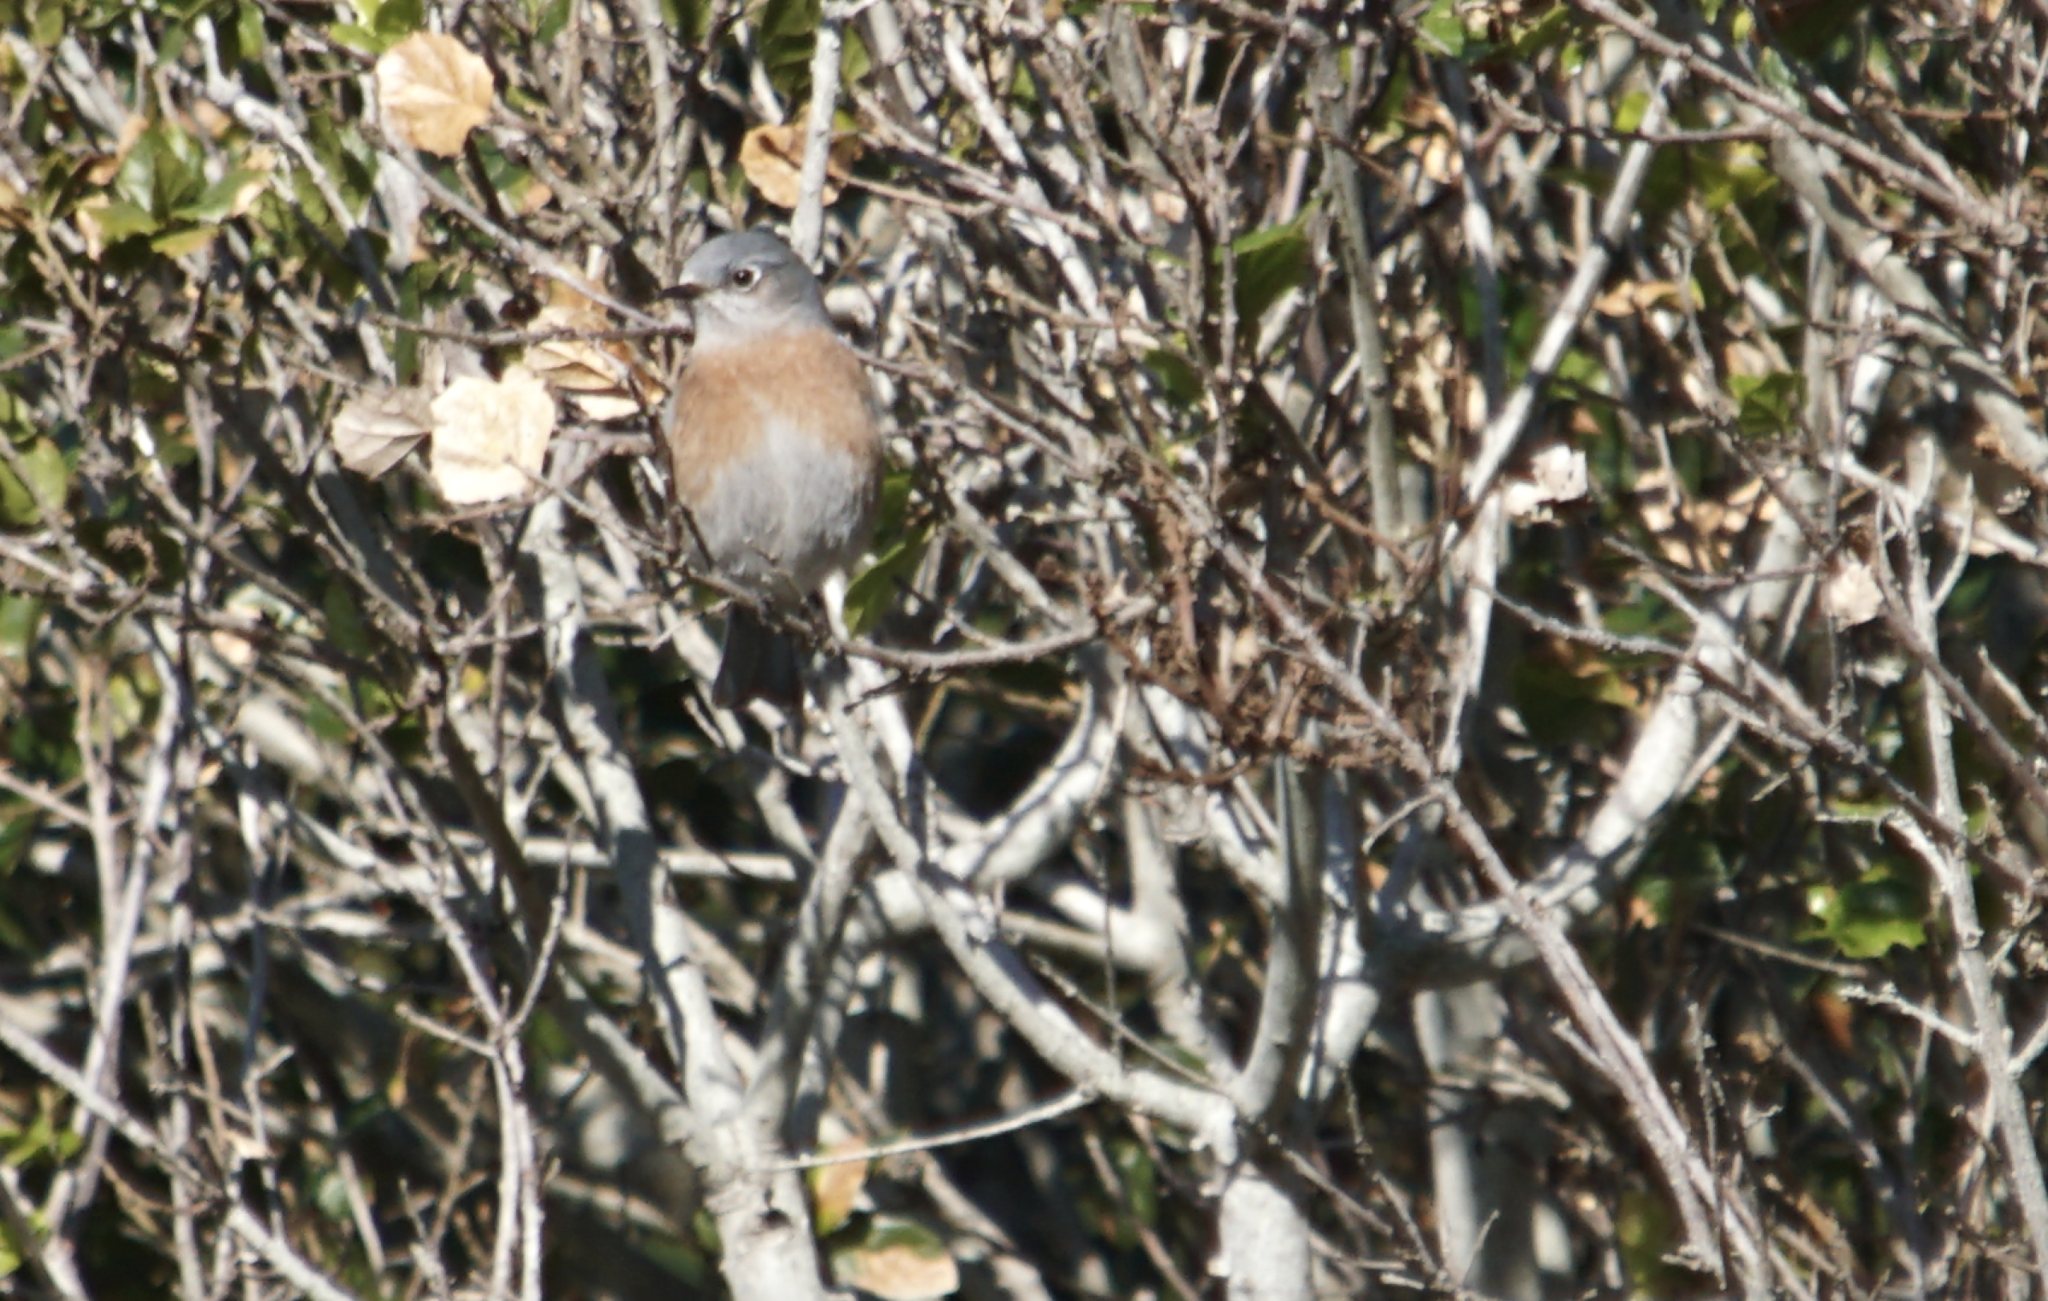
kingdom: Animalia
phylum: Chordata
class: Aves
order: Passeriformes
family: Turdidae
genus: Sialia
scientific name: Sialia mexicana
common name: Western bluebird
